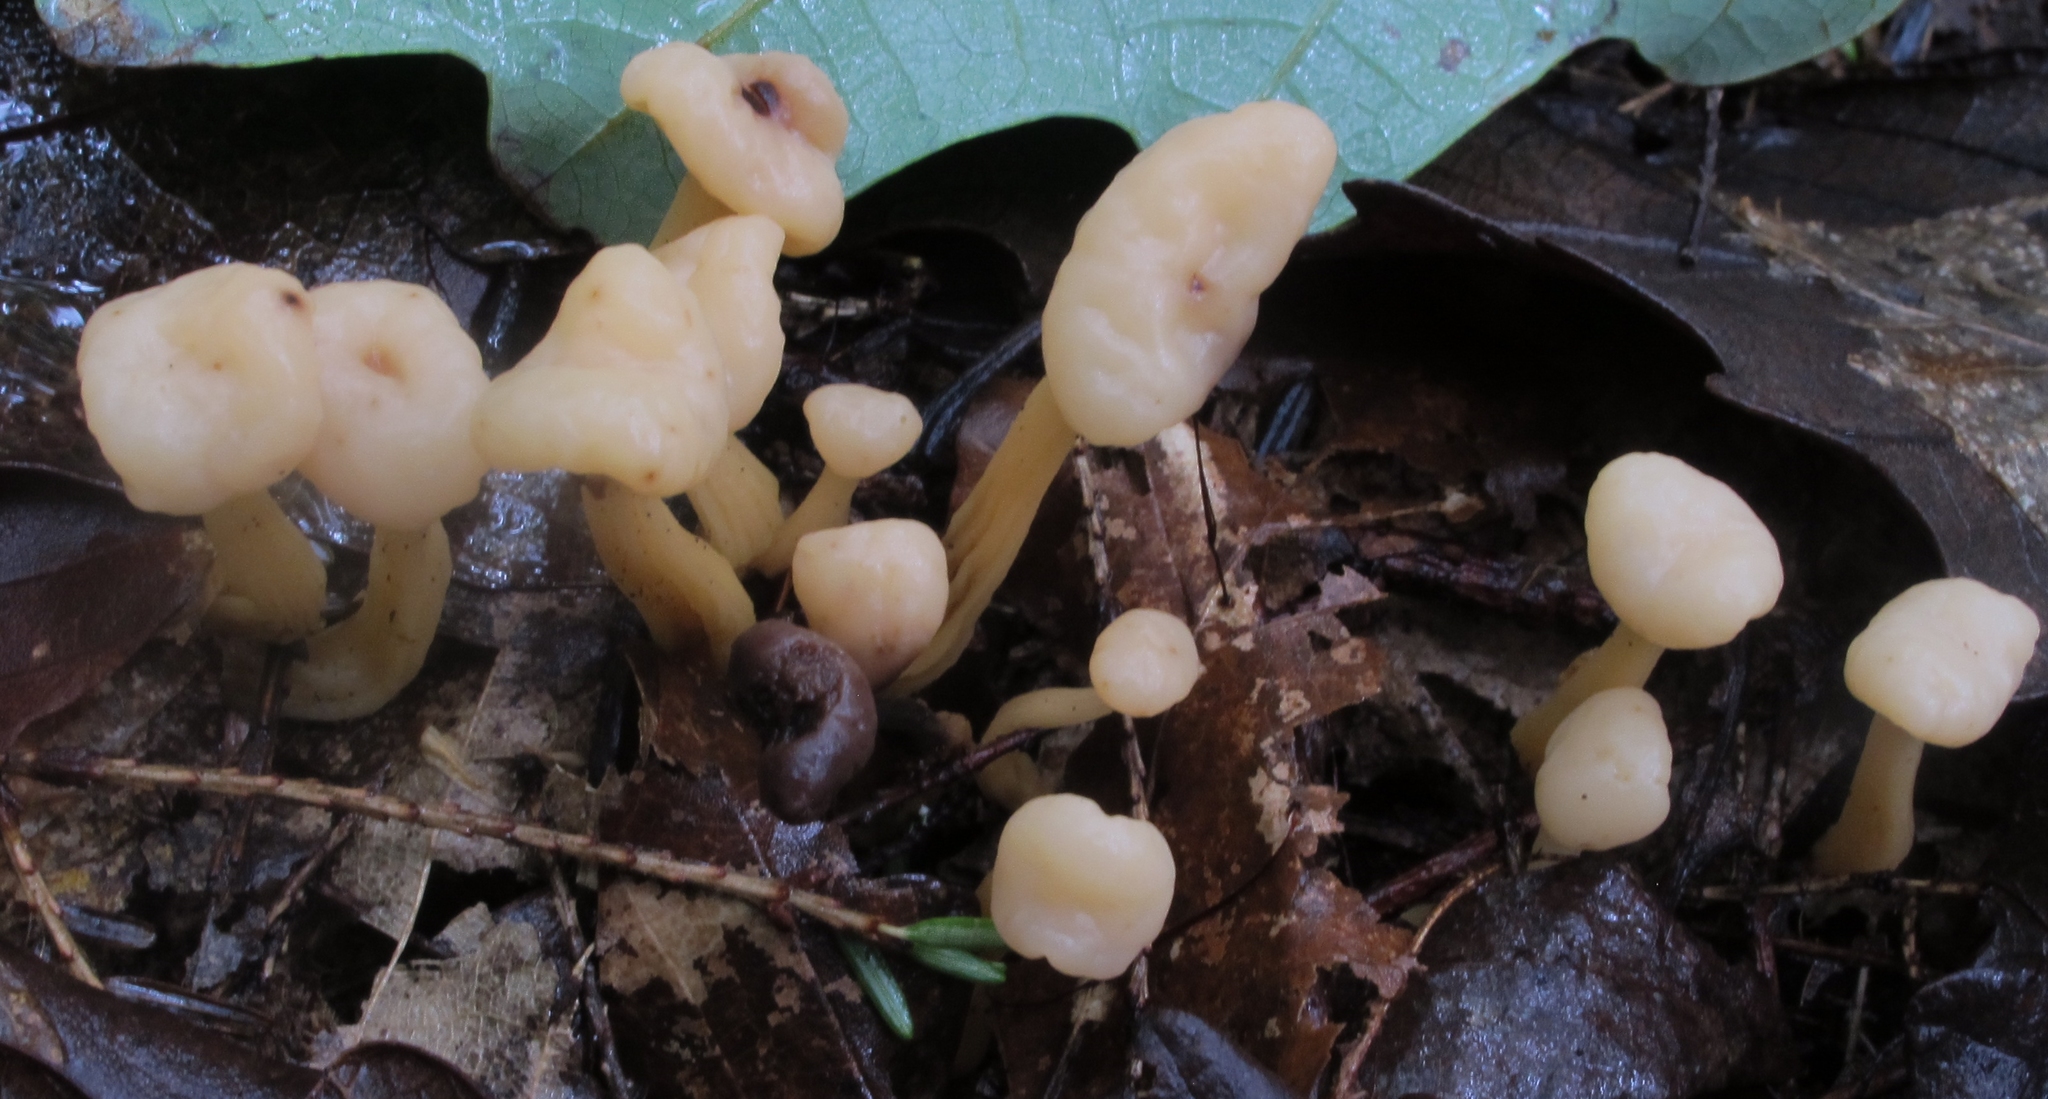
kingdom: Fungi
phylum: Ascomycota
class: Leotiomycetes
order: Rhytismatales
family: Cudoniaceae
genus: Cudonia
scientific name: Cudonia lutea
